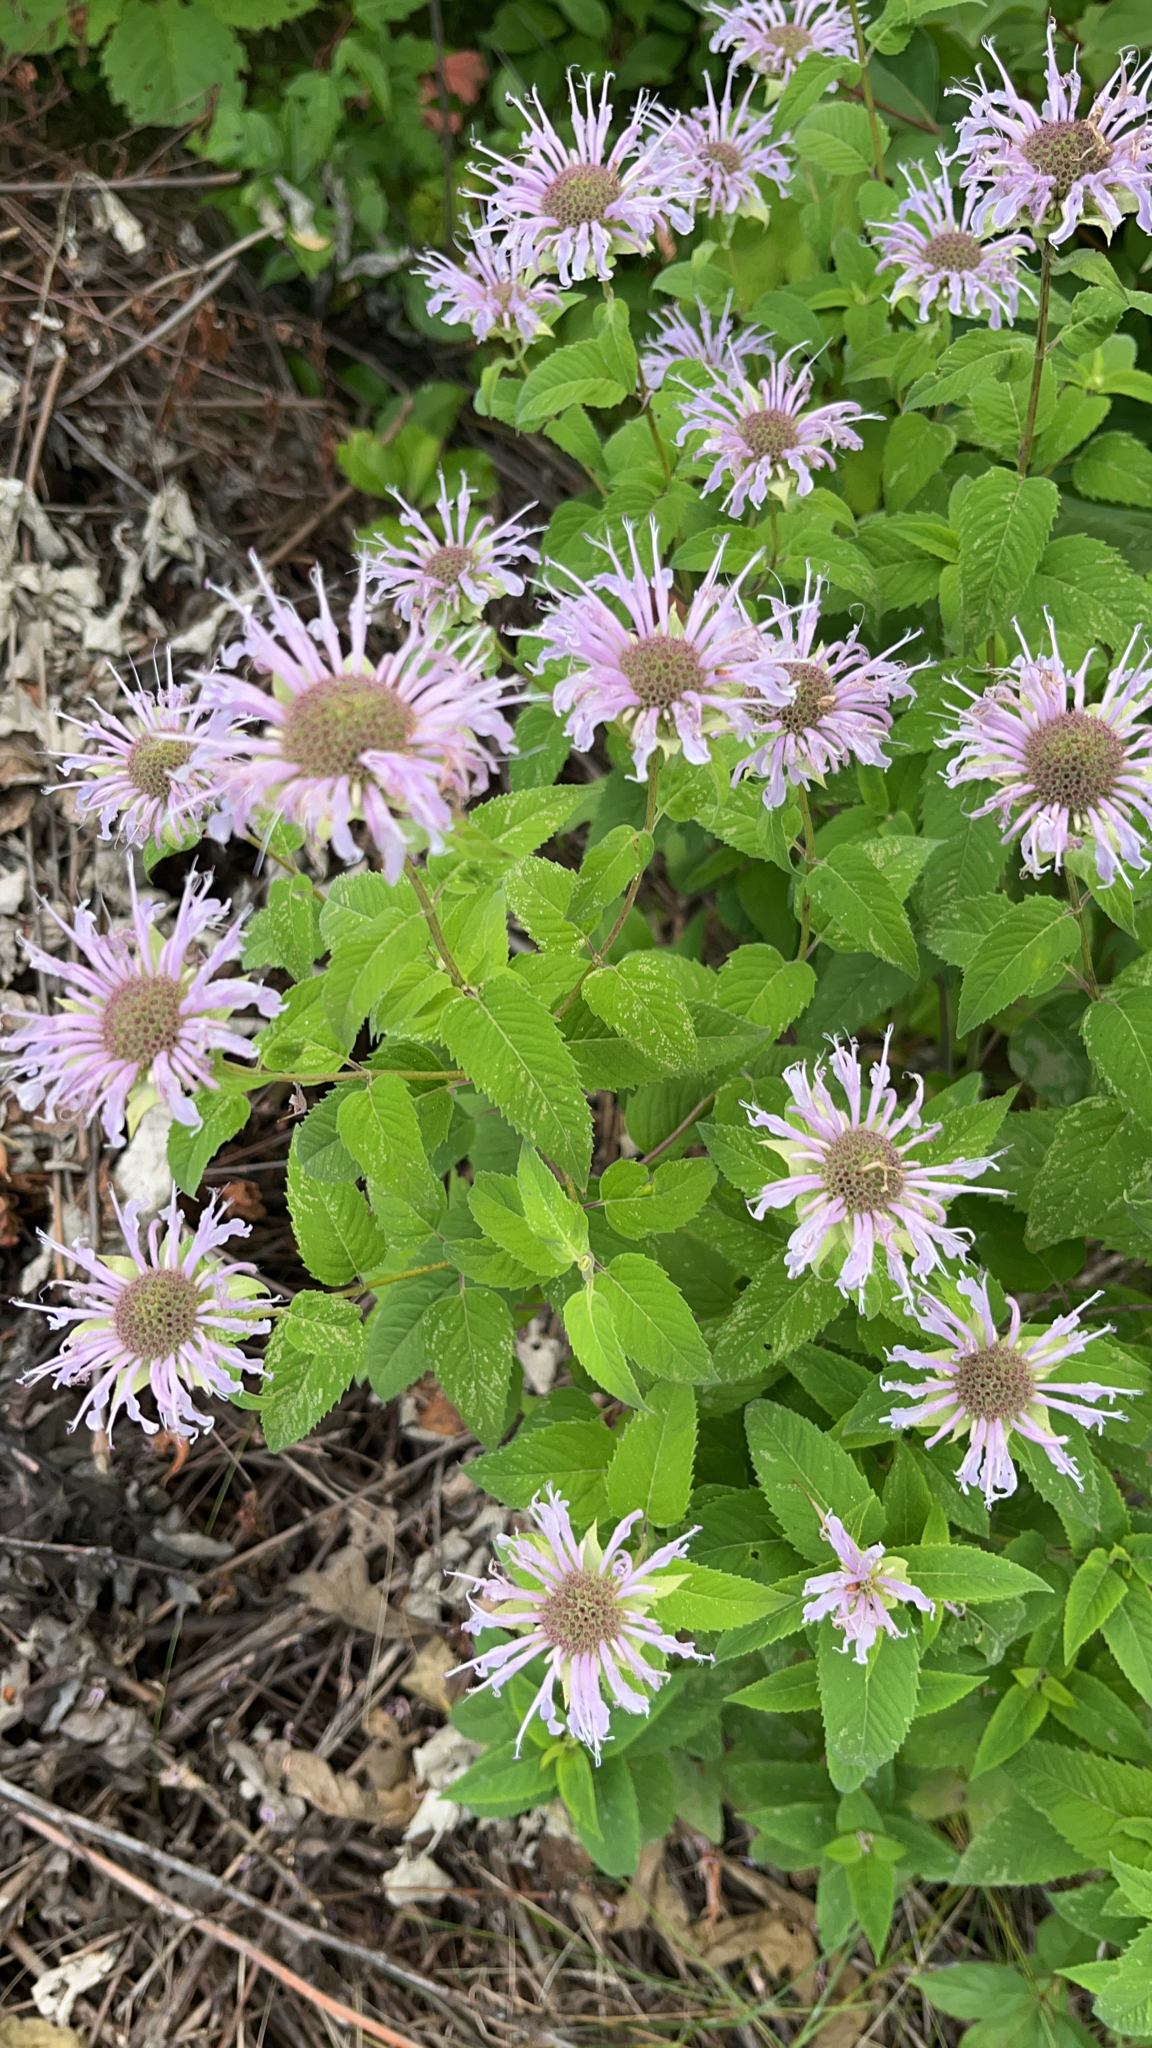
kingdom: Plantae
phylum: Tracheophyta
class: Magnoliopsida
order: Lamiales
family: Lamiaceae
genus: Monarda
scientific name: Monarda fistulosa
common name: Purple beebalm
